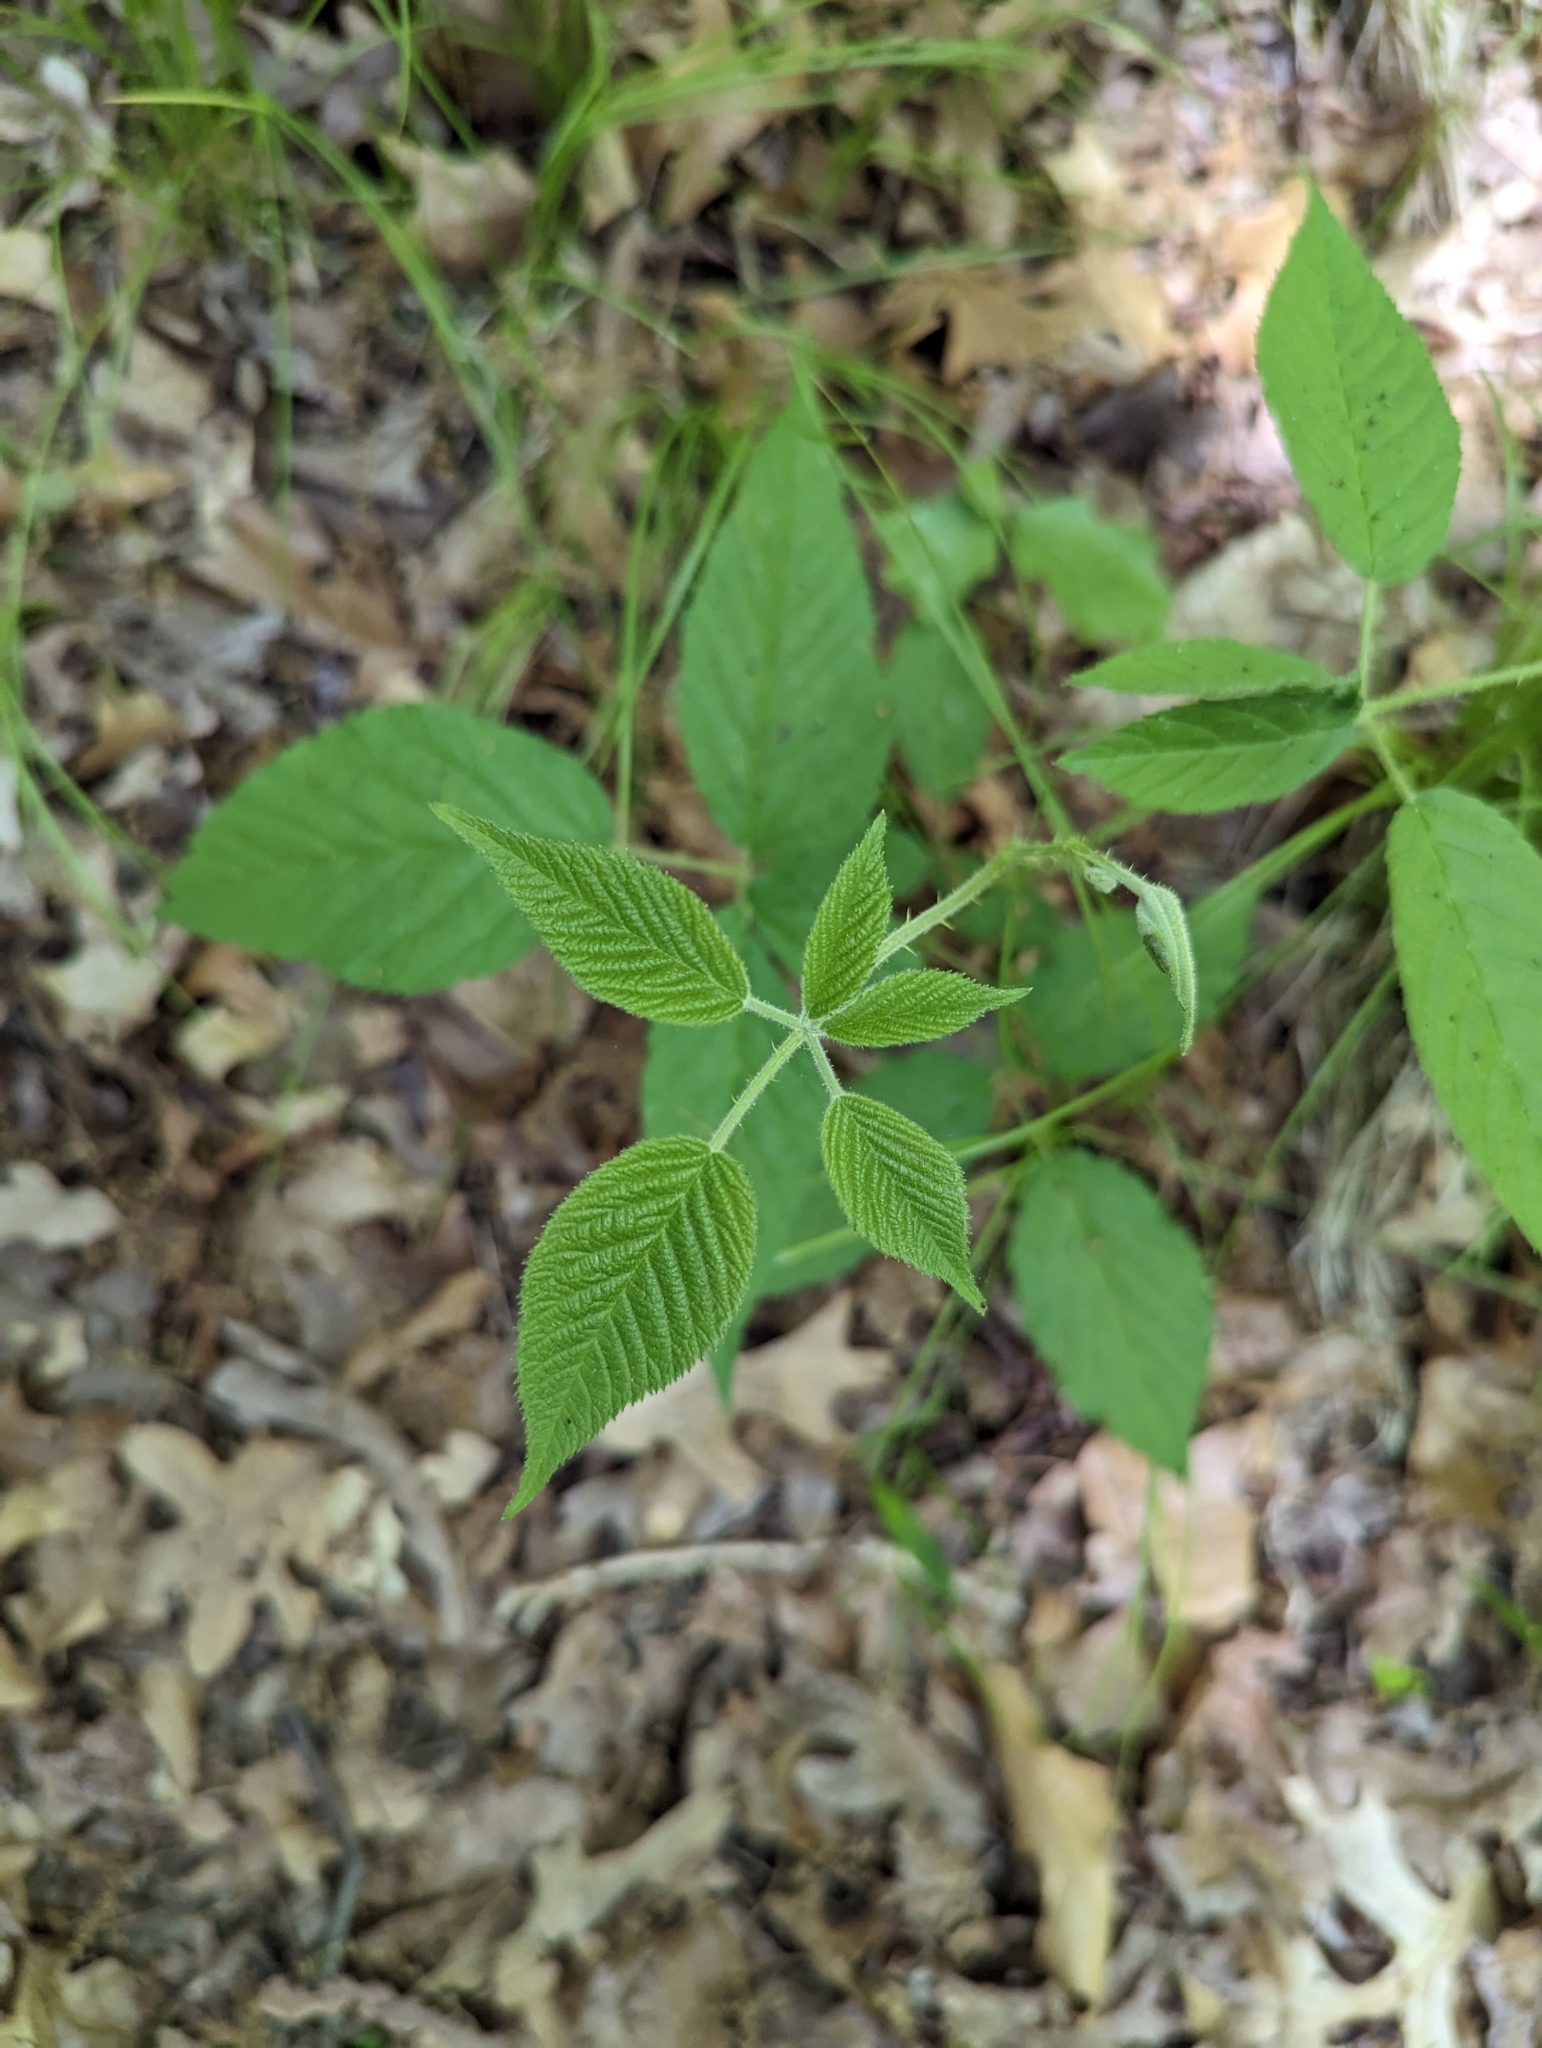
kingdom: Plantae
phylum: Tracheophyta
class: Magnoliopsida
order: Rosales
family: Rosaceae
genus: Rubus
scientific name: Rubus allegheniensis
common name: Allegheny blackberry
